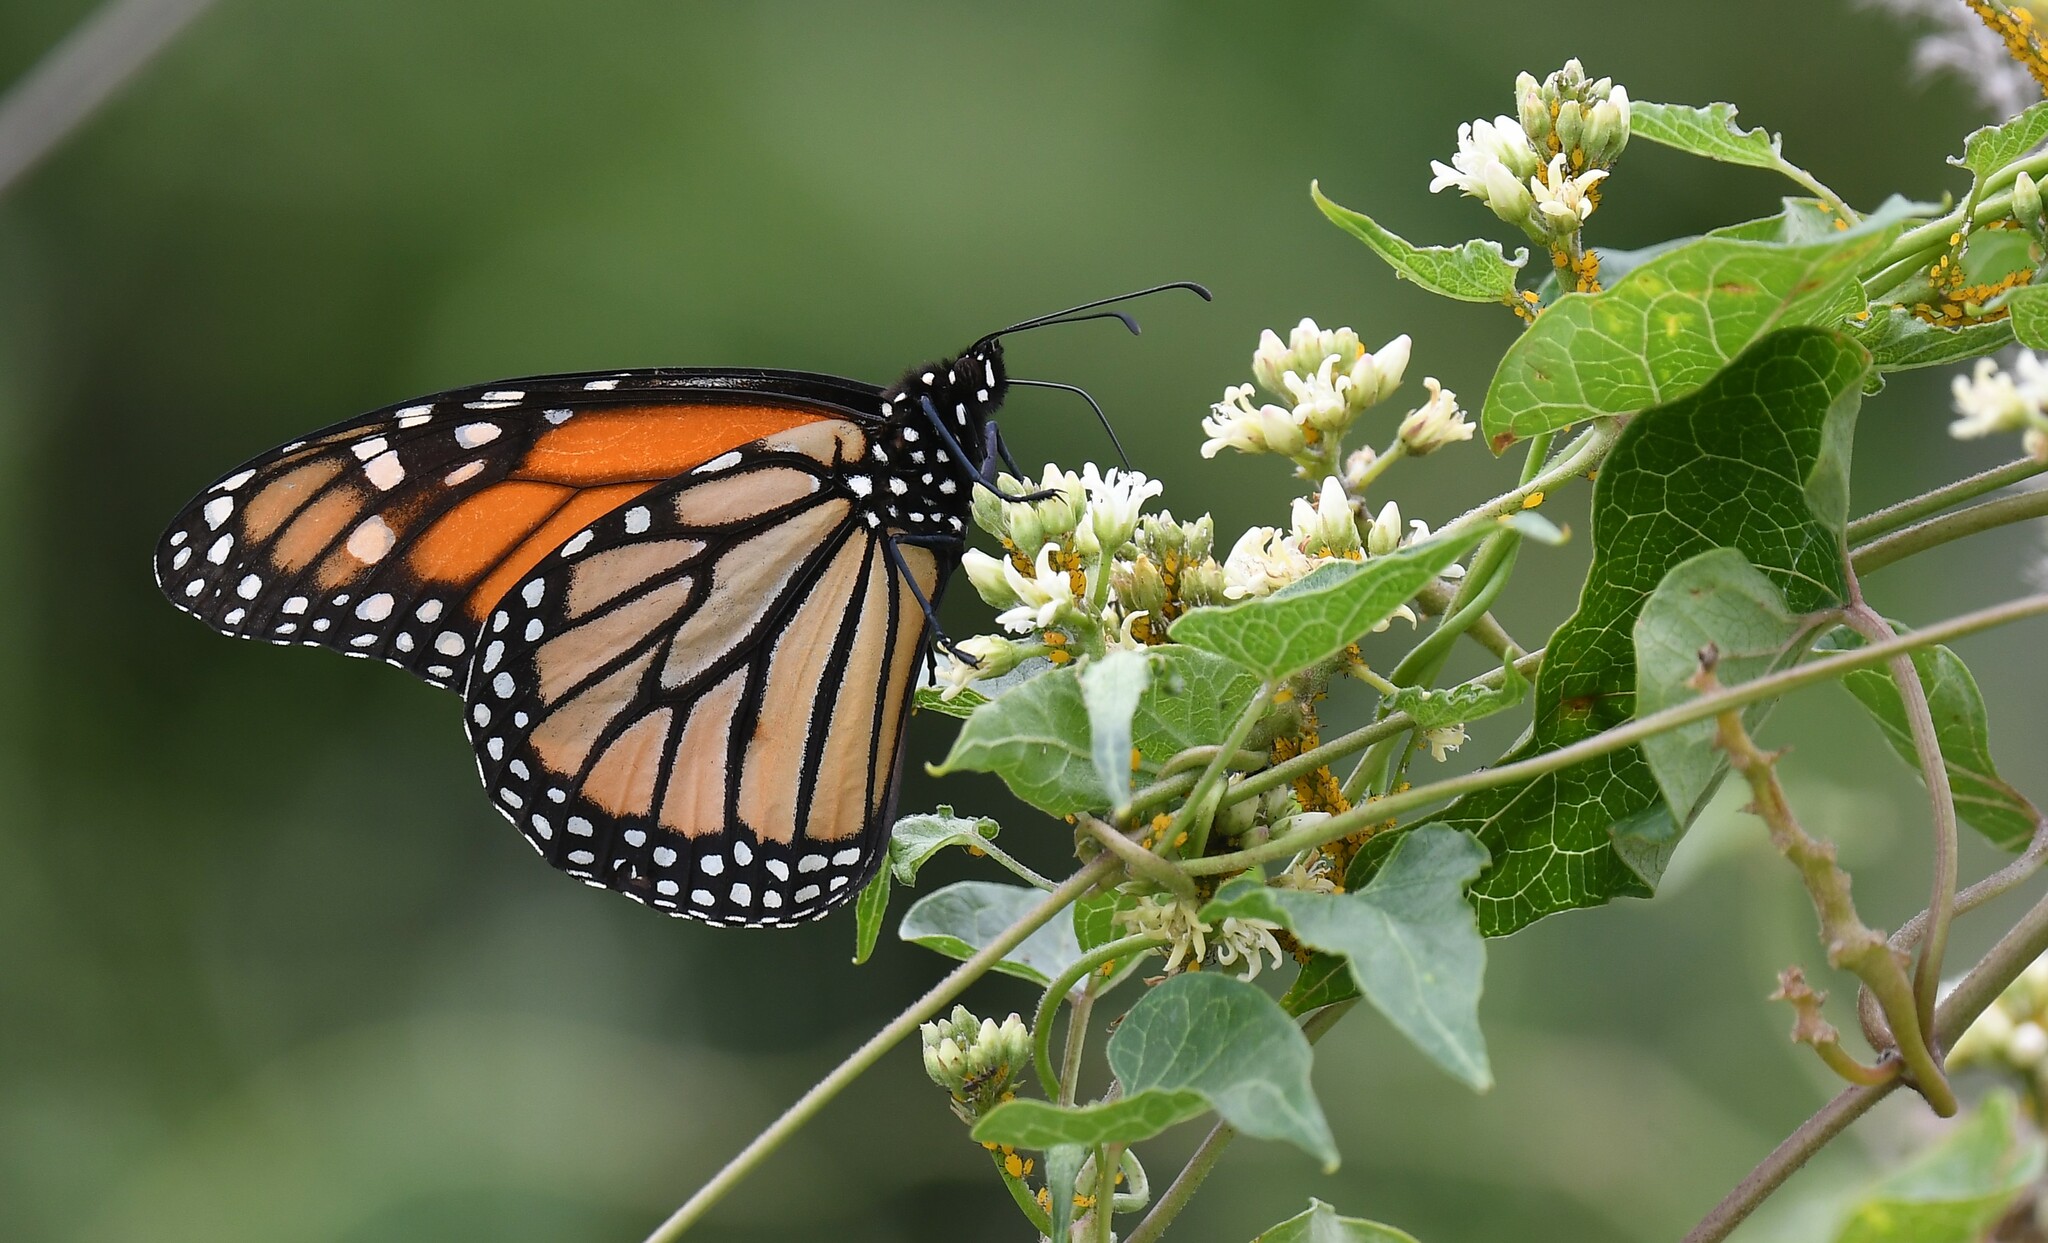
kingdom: Animalia
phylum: Arthropoda
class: Insecta
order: Lepidoptera
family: Nymphalidae
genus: Danaus
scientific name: Danaus plexippus
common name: Monarch
